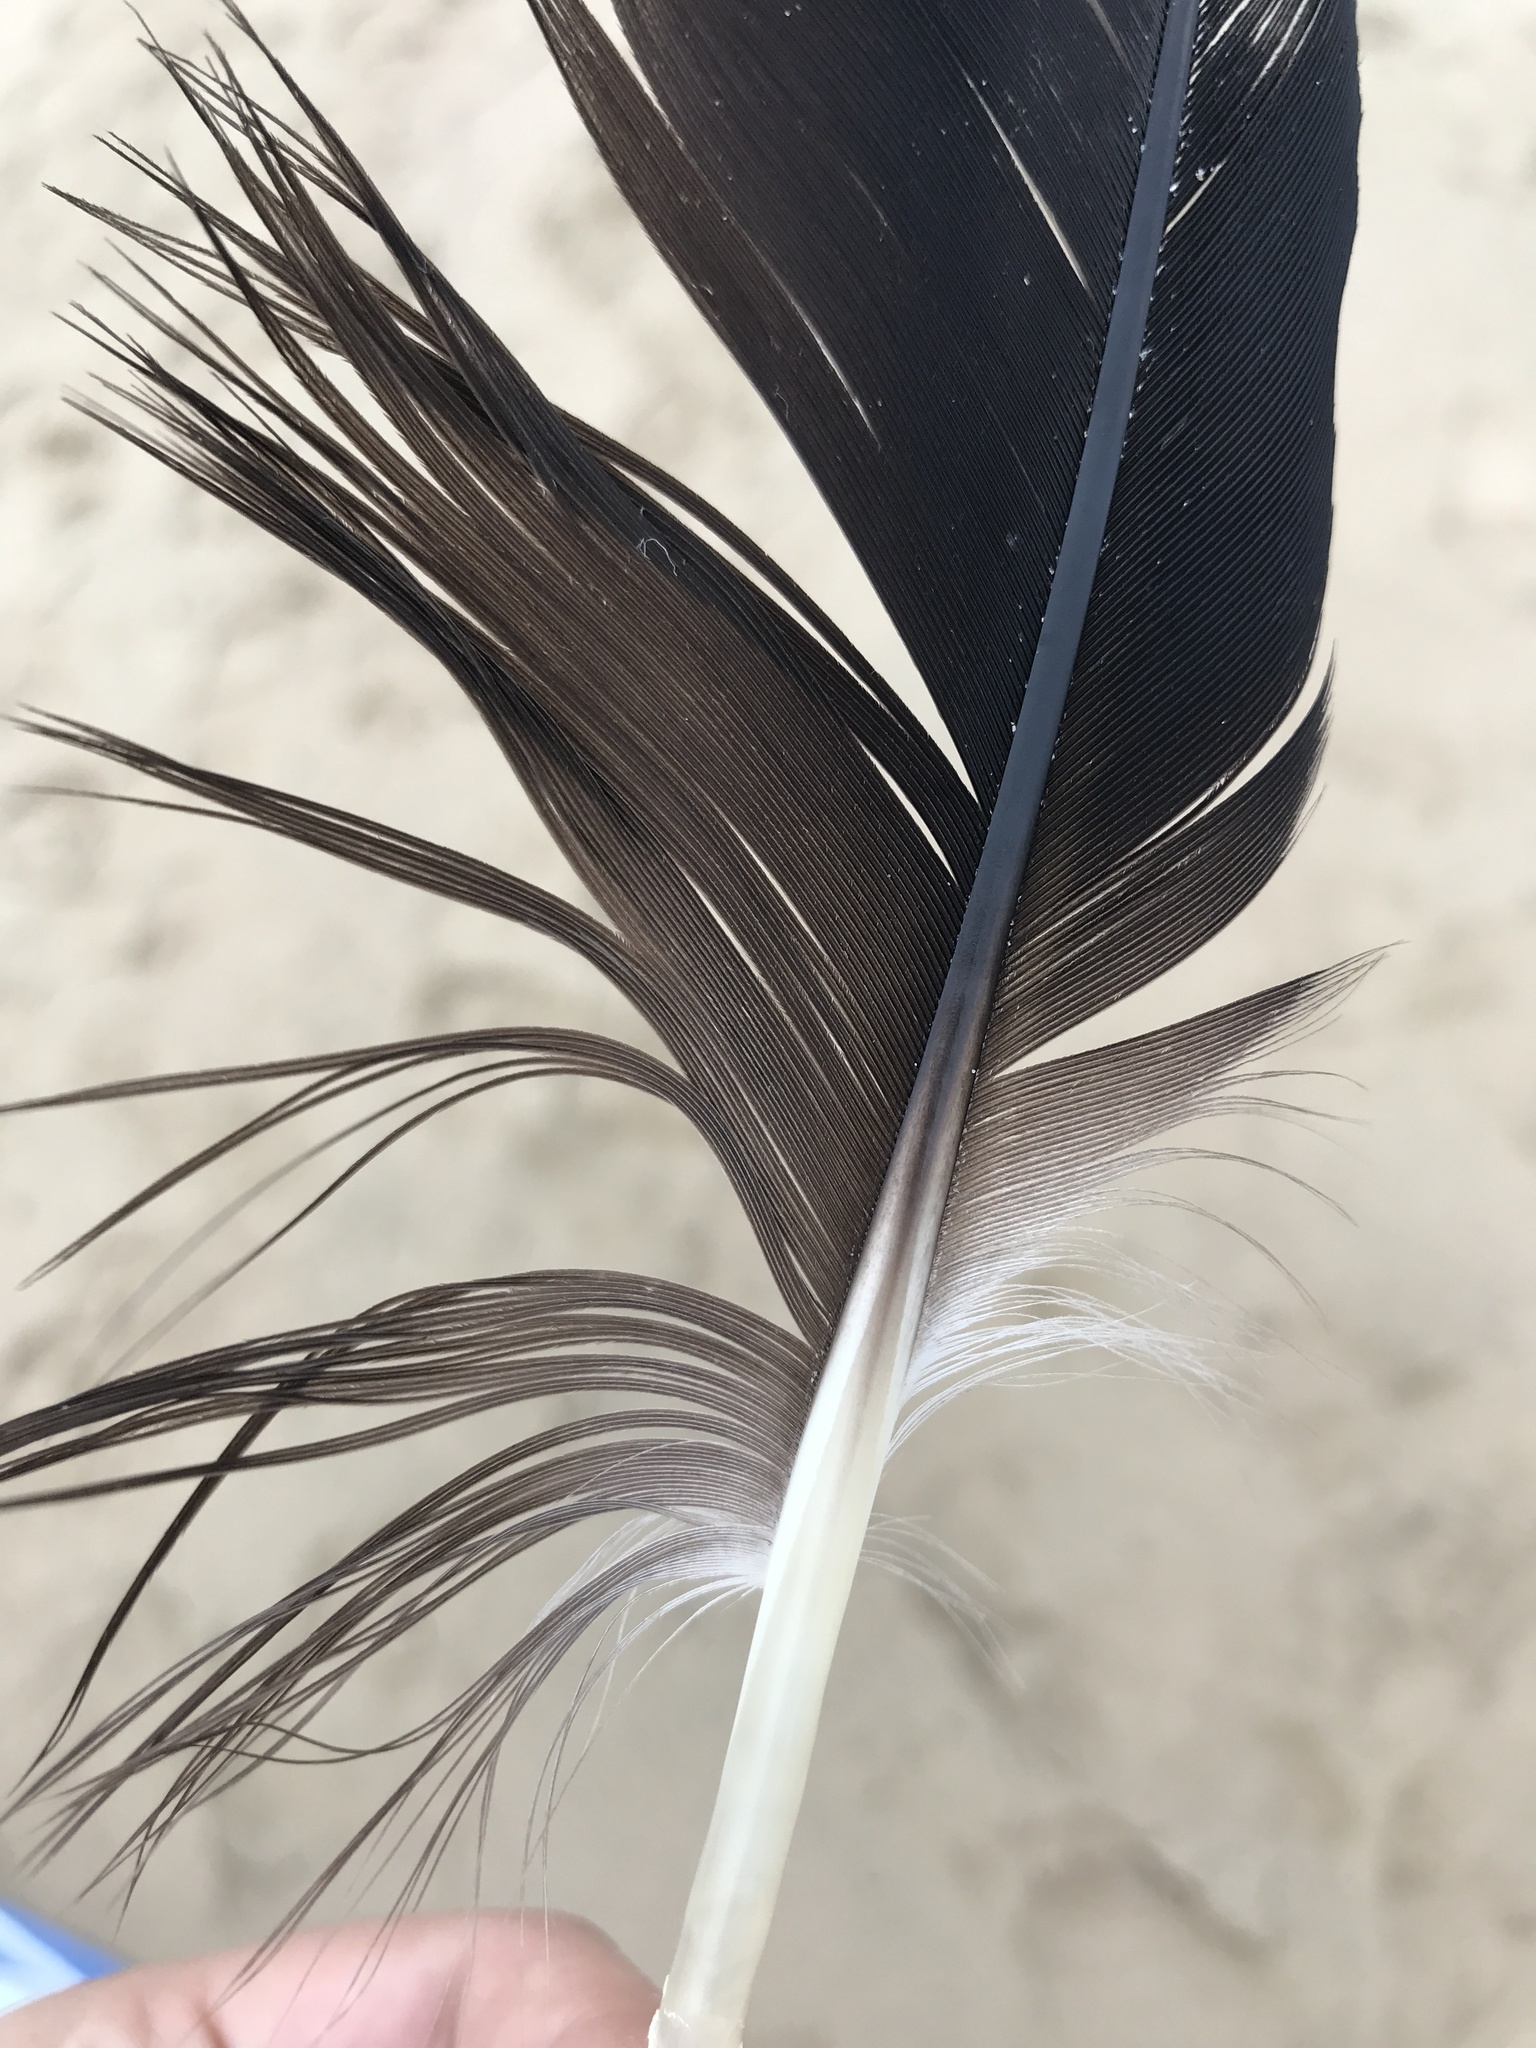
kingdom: Animalia
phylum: Chordata
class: Aves
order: Suliformes
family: Fregatidae
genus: Fregata
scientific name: Fregata magnificens
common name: Magnificent frigatebird
